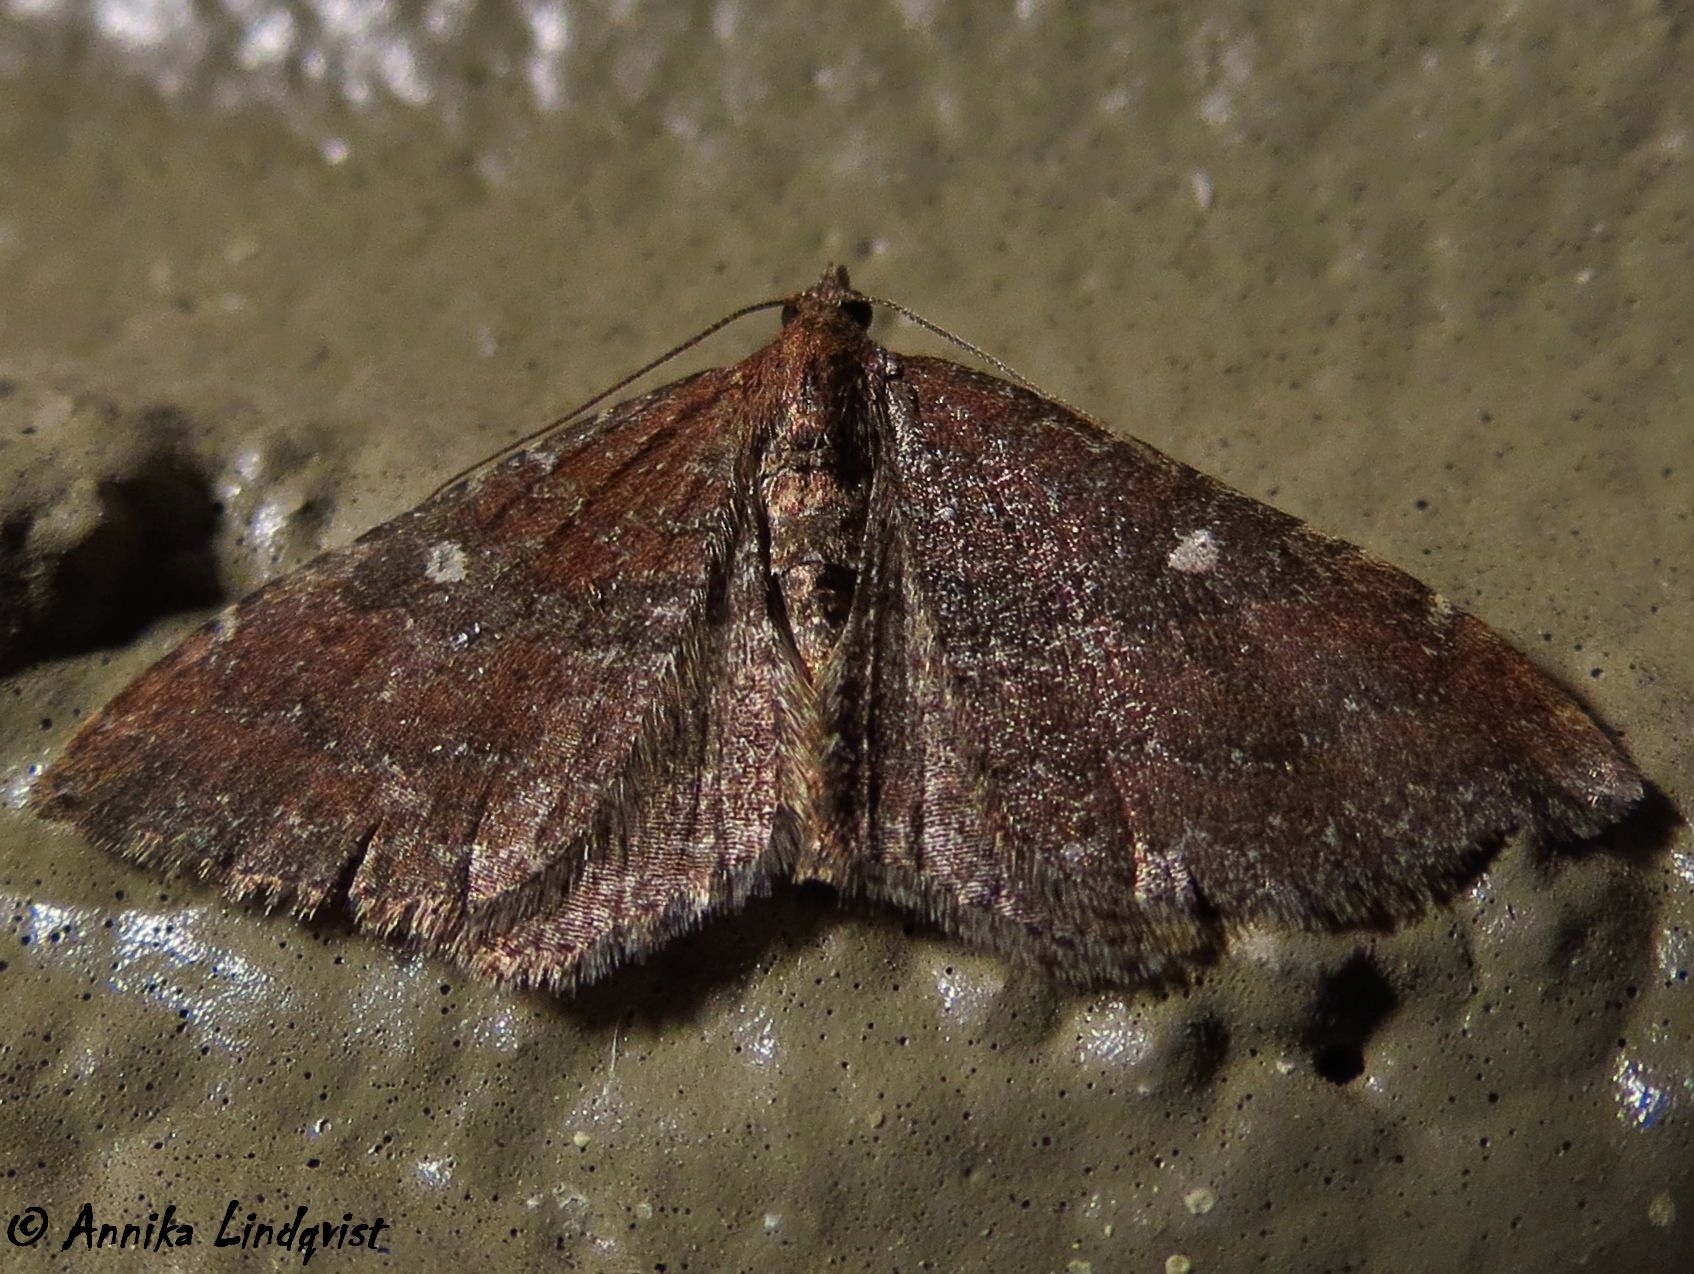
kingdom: Animalia
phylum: Arthropoda
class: Insecta
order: Lepidoptera
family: Geometridae
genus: Orthonama
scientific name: Orthonama obstipata
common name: The gem
